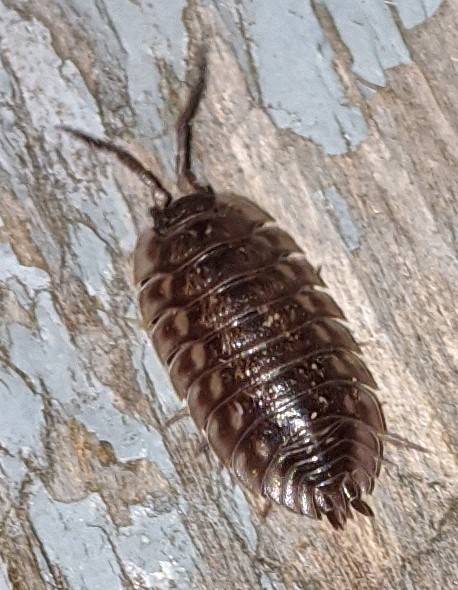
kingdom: Animalia
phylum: Arthropoda
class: Malacostraca
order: Isopoda
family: Oniscidae
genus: Oniscus
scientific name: Oniscus asellus
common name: Common shiny woodlouse
